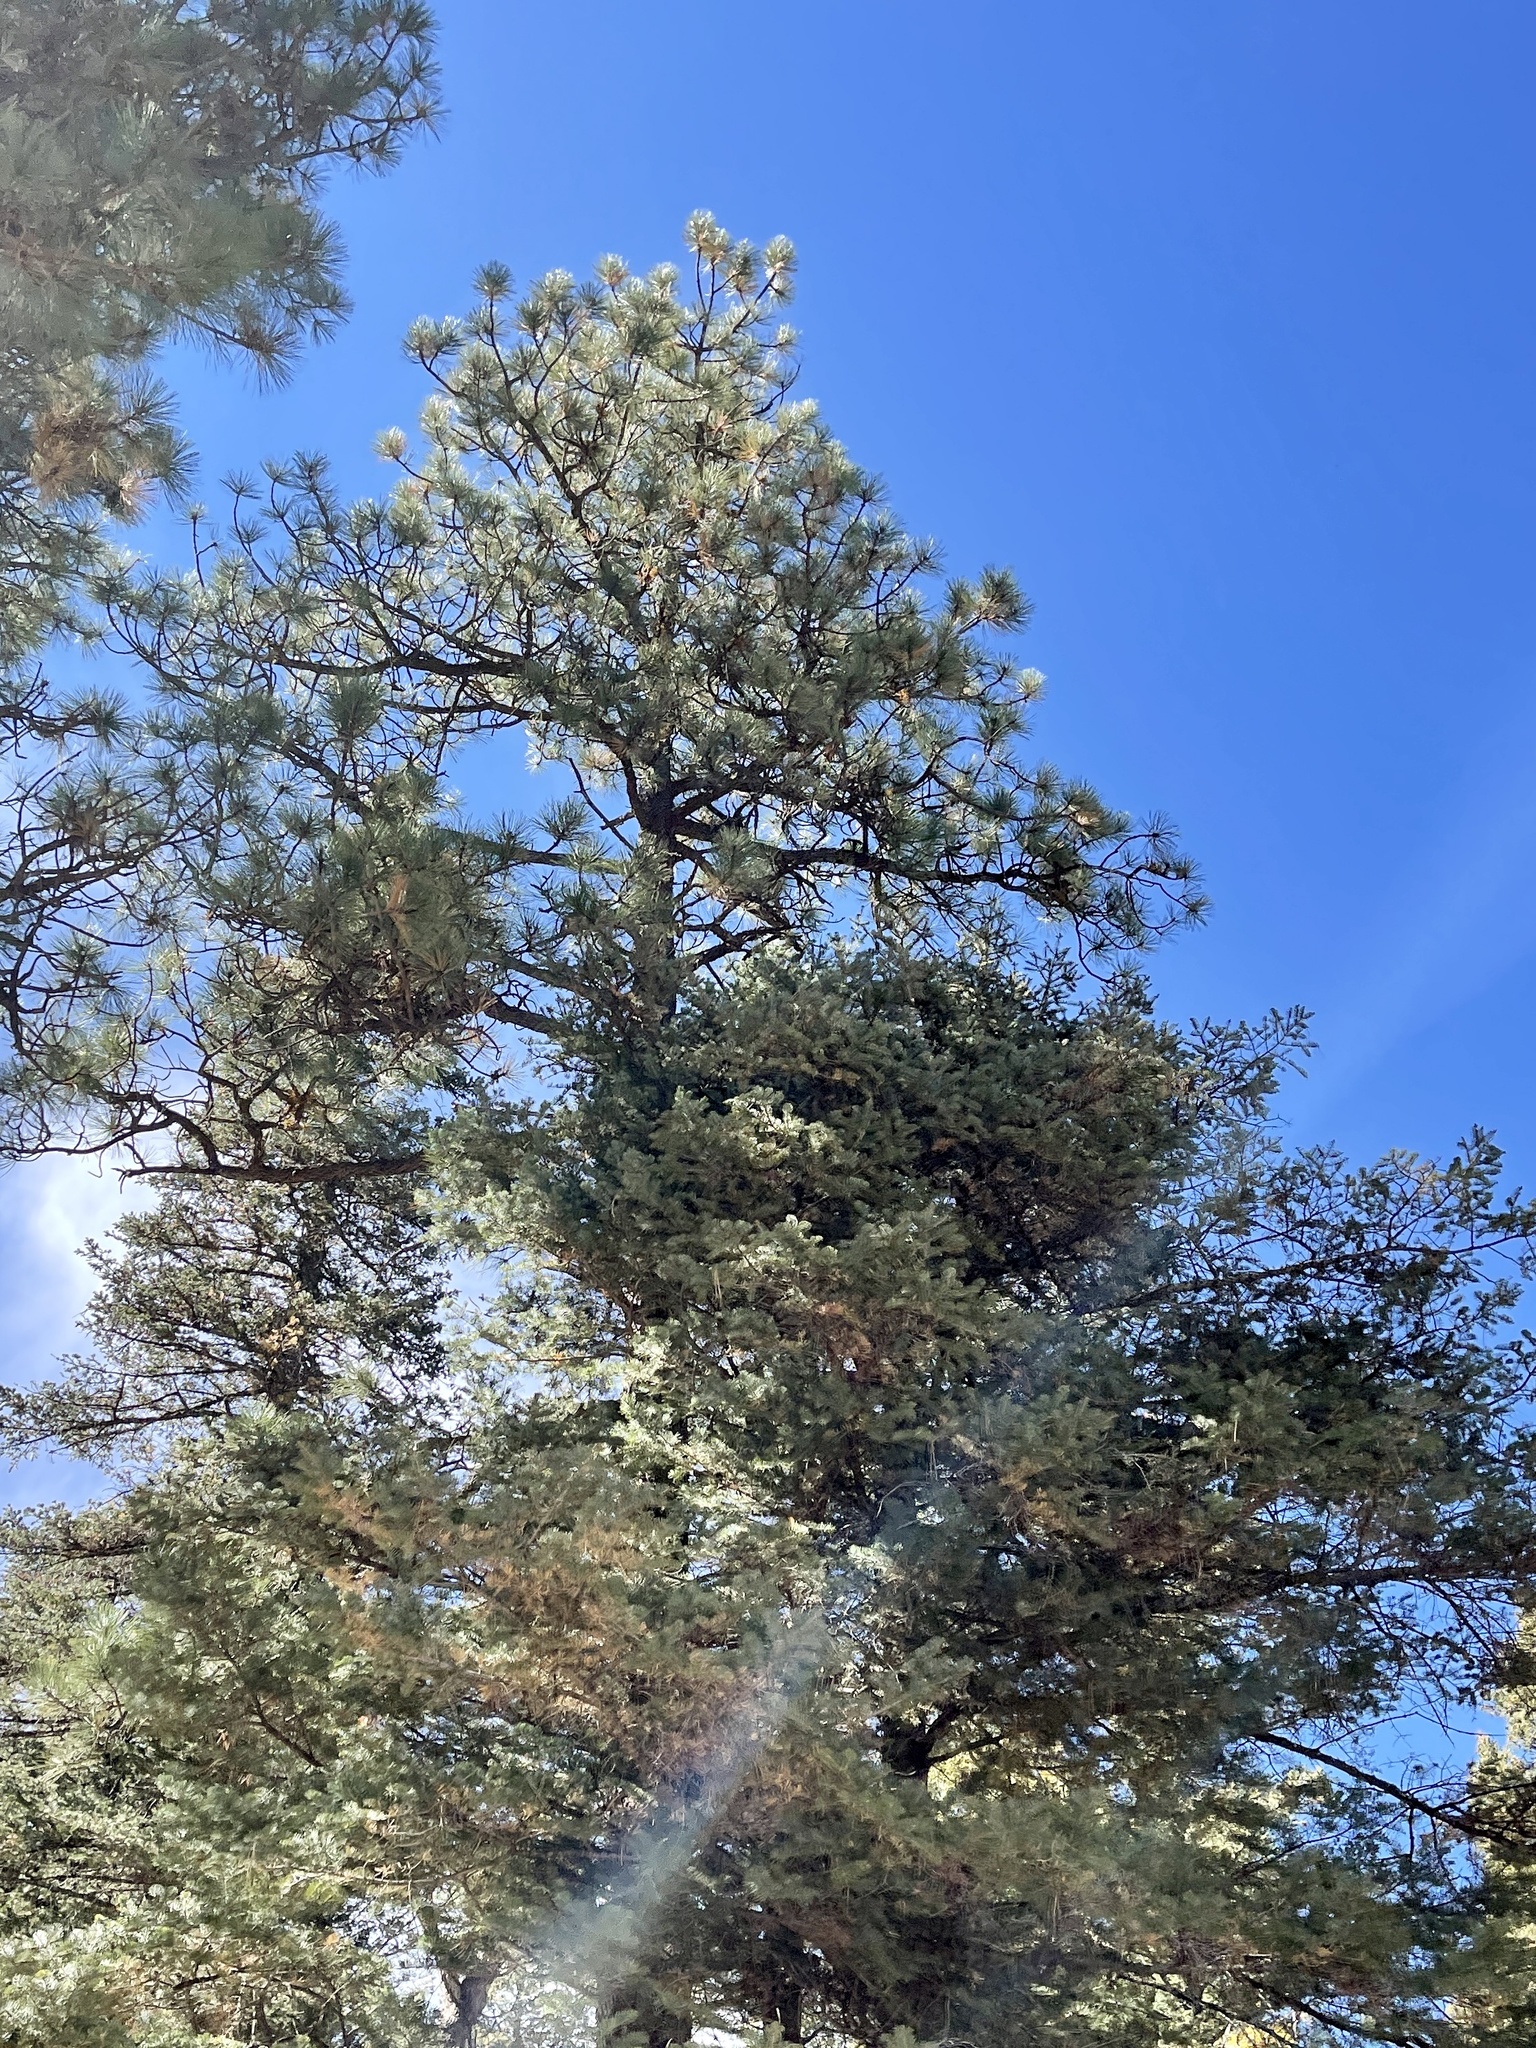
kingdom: Plantae
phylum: Tracheophyta
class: Pinopsida
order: Pinales
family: Pinaceae
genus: Pinus
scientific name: Pinus ponderosa
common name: Western yellow-pine
